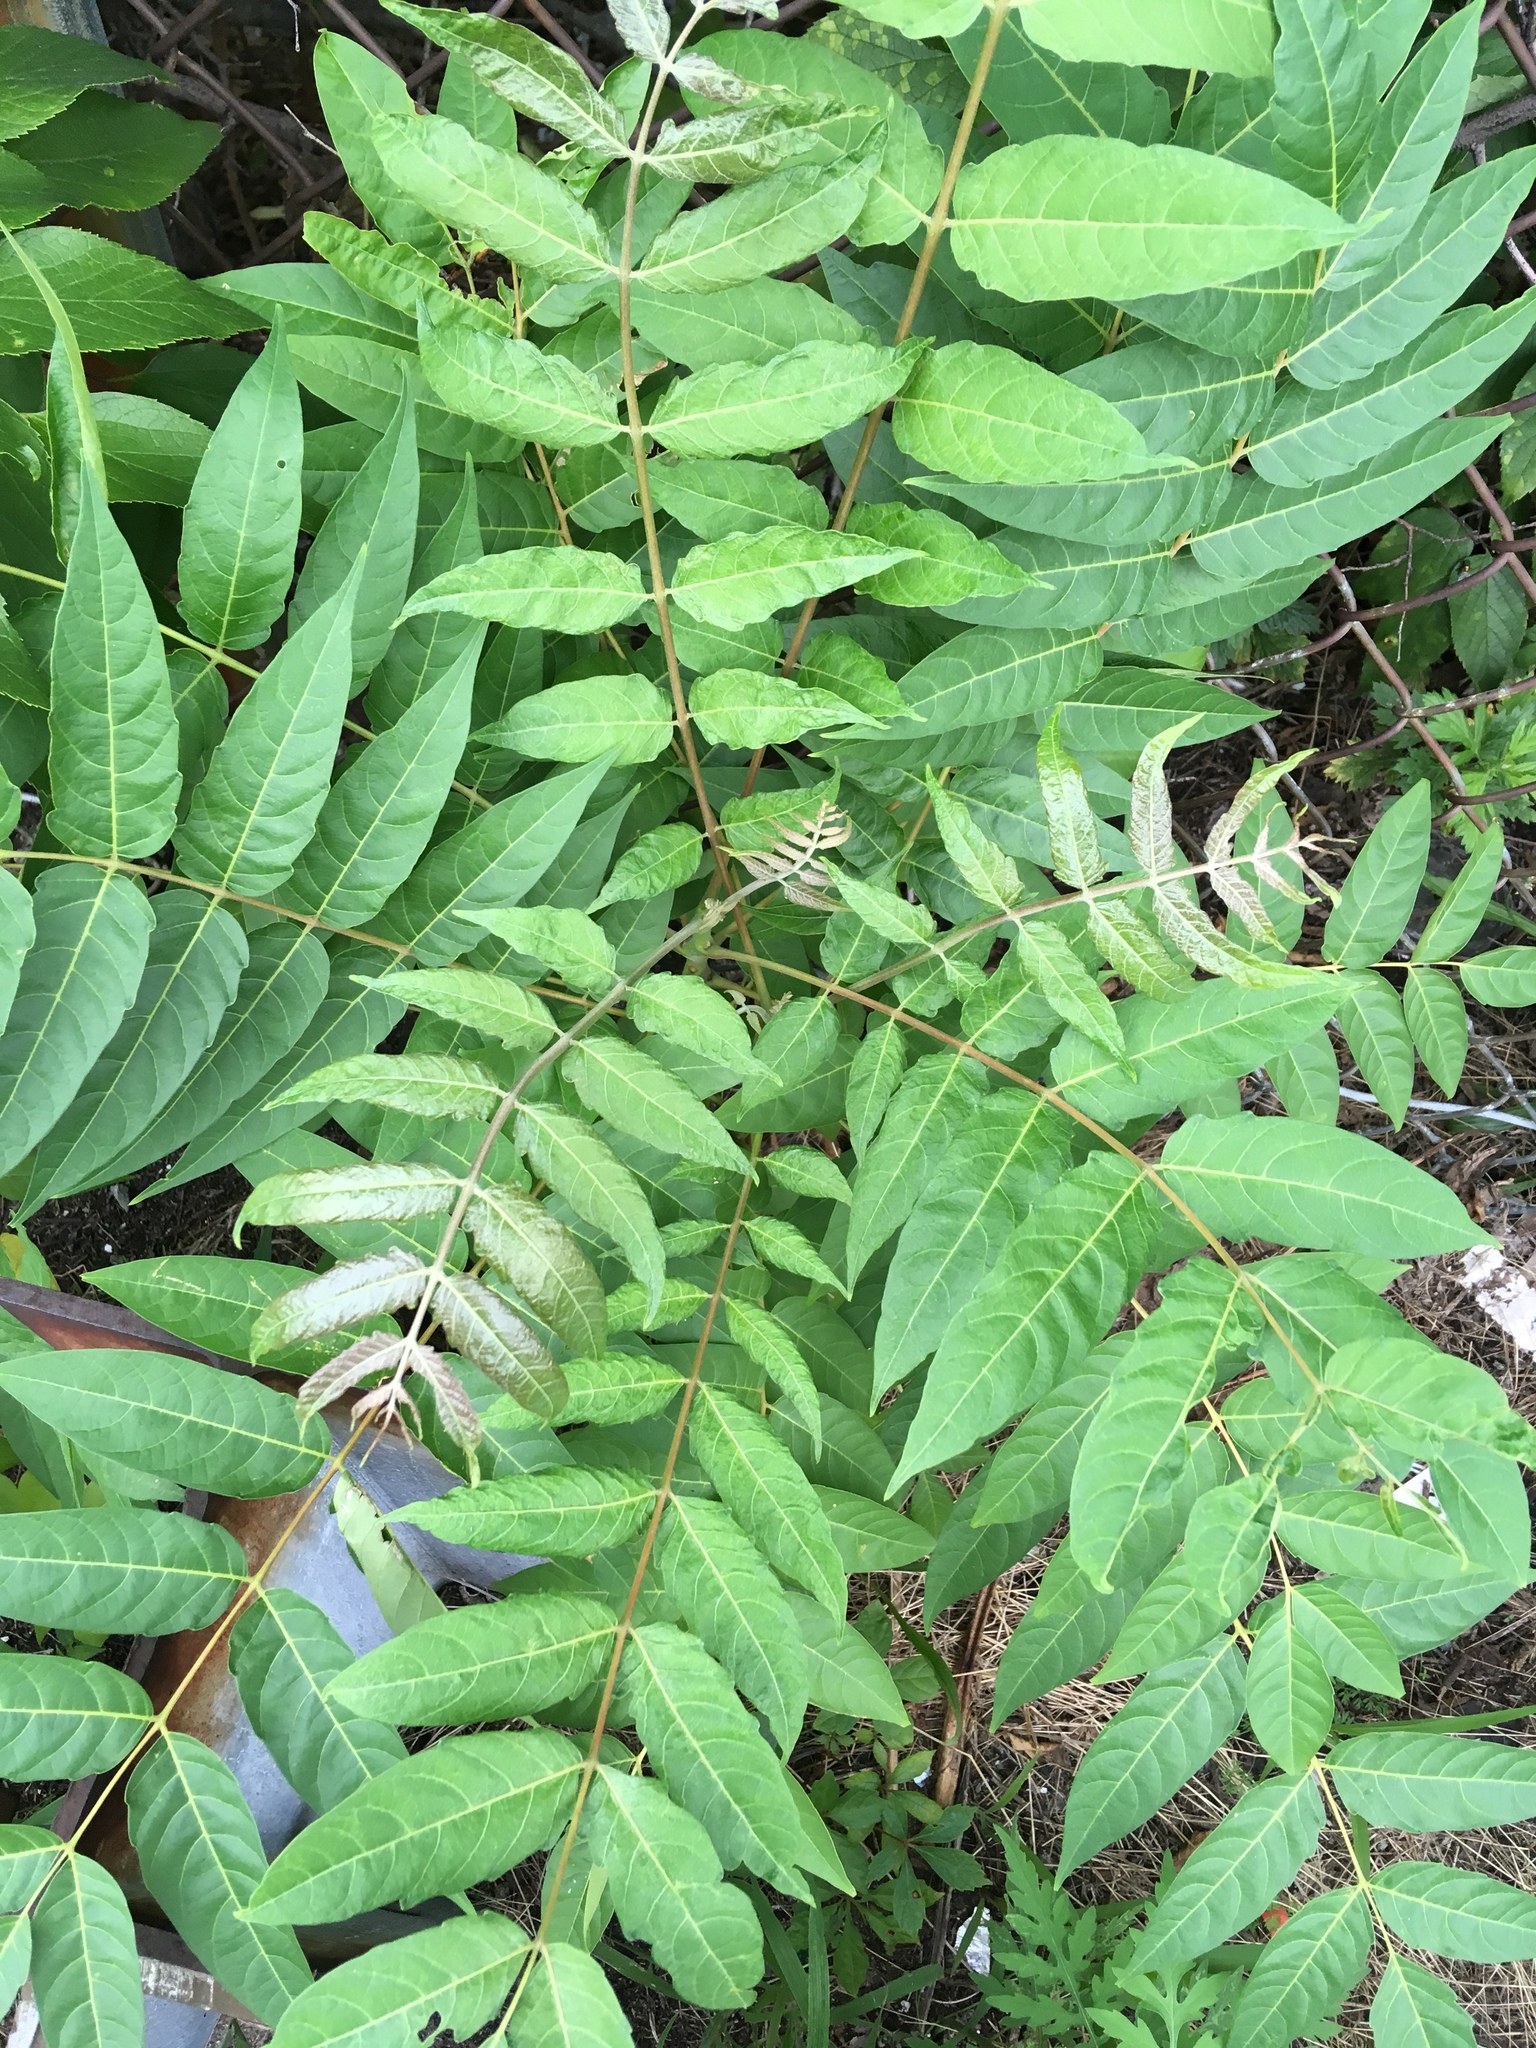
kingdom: Plantae
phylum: Tracheophyta
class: Magnoliopsida
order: Sapindales
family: Simaroubaceae
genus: Ailanthus
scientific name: Ailanthus altissima
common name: Tree-of-heaven
